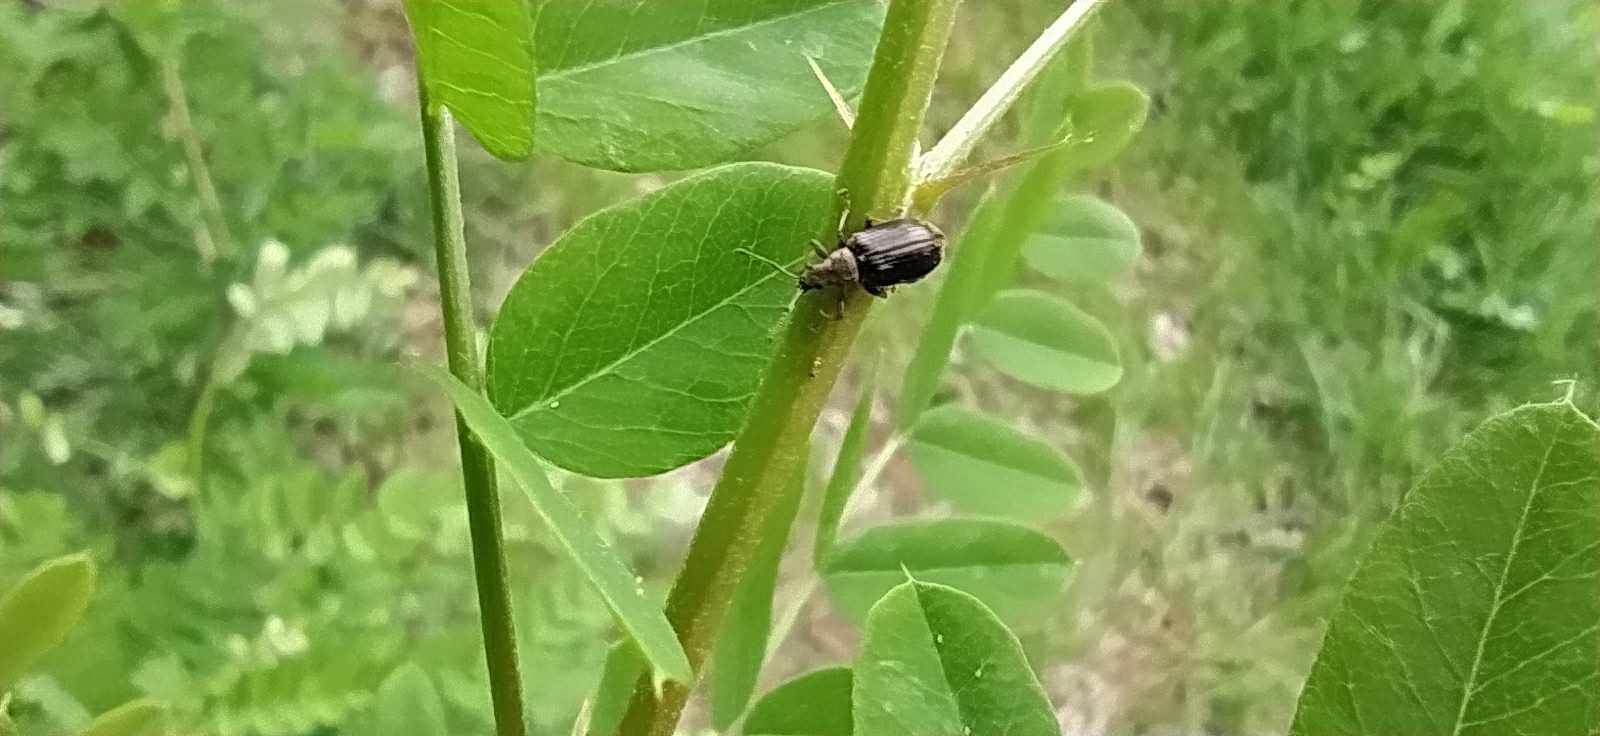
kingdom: Animalia
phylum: Arthropoda
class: Insecta
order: Coleoptera
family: Curculionidae
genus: Phyllobius
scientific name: Phyllobius pyri
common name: Common leaf weevil
